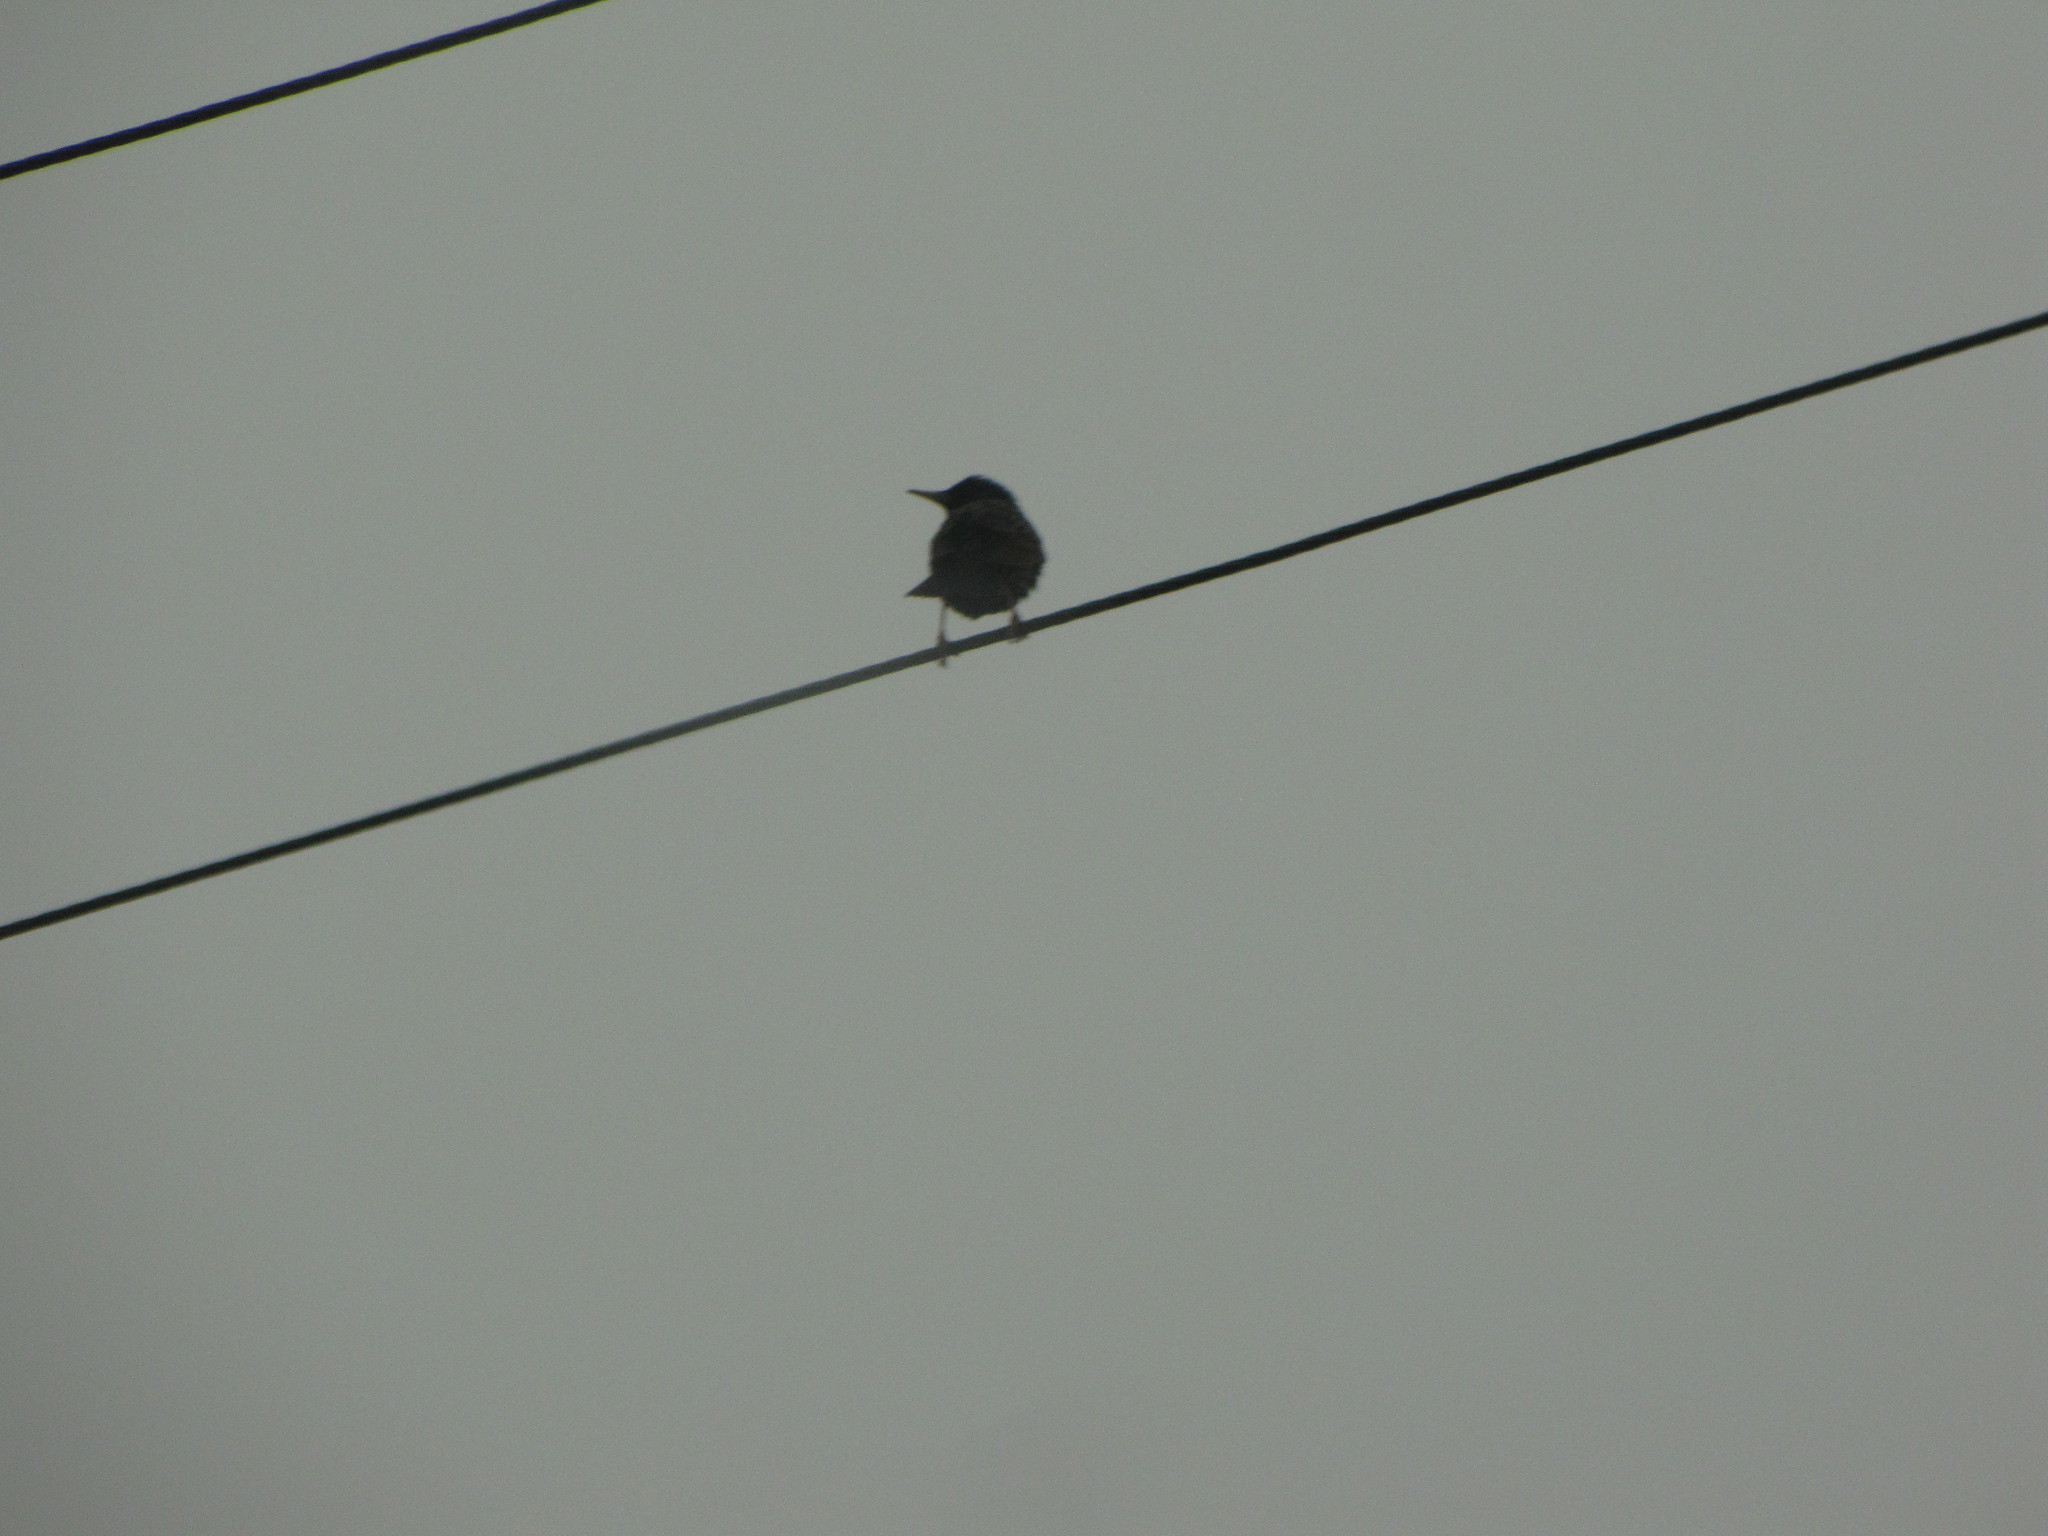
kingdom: Animalia
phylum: Chordata
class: Aves
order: Passeriformes
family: Sturnidae
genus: Sturnus
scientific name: Sturnus vulgaris
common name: Common starling
